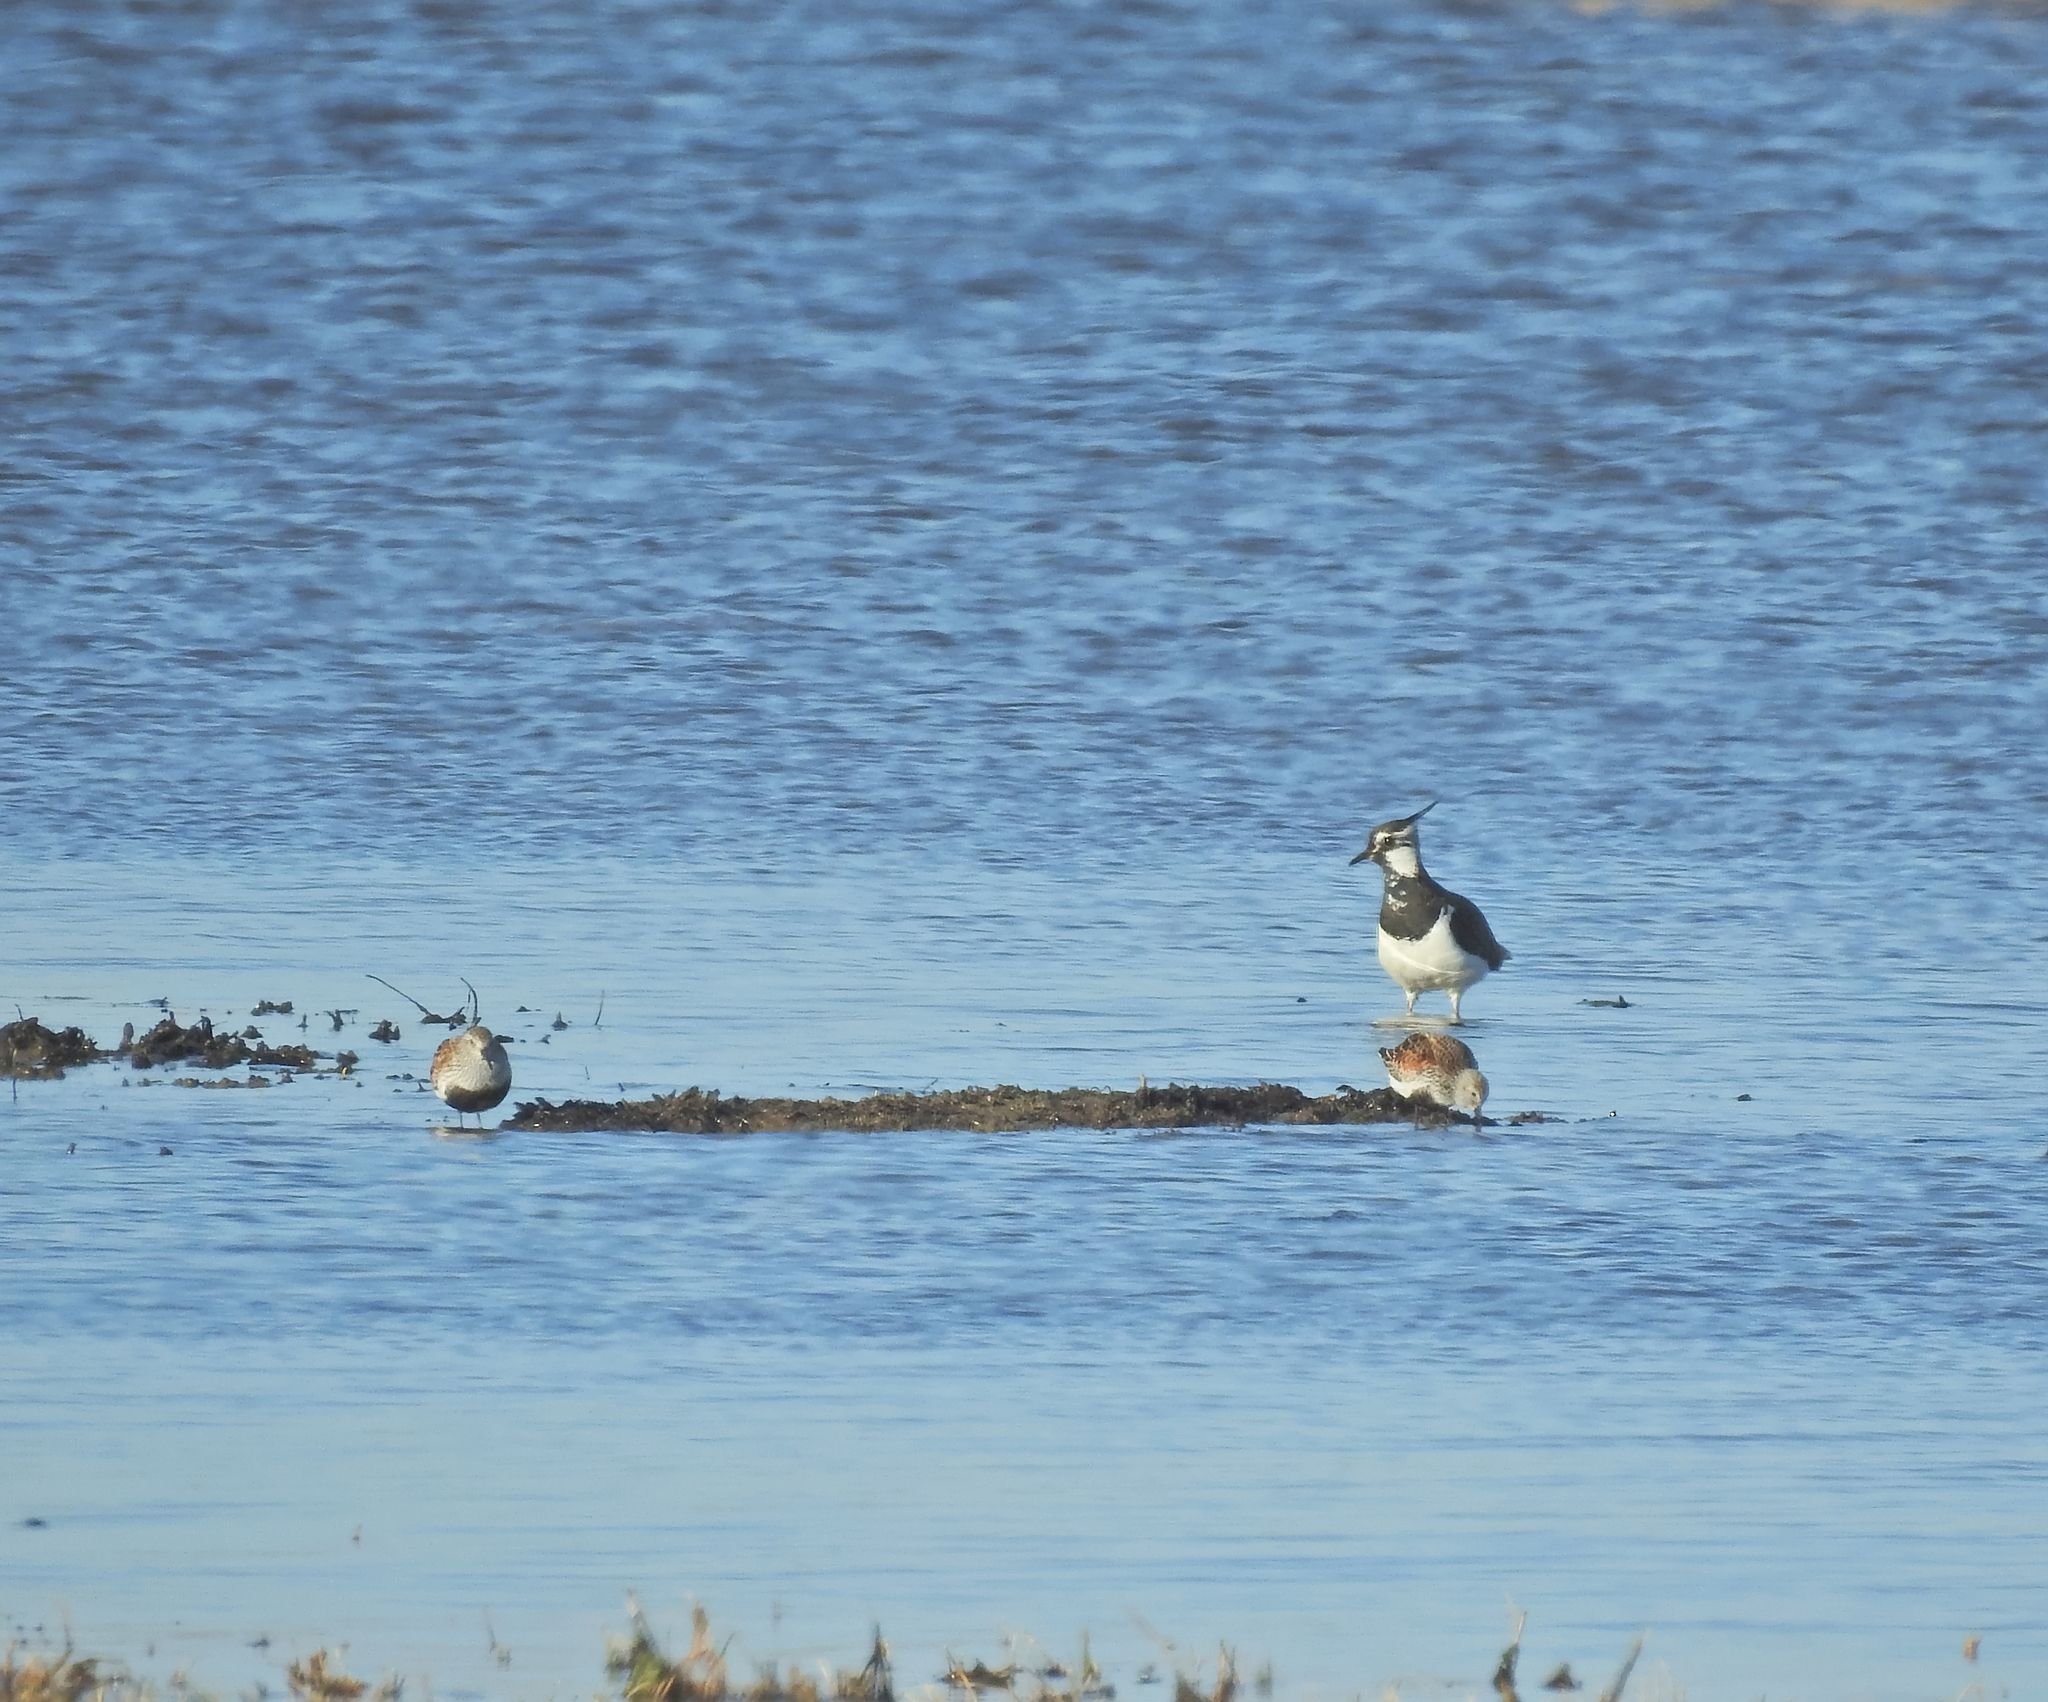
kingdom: Animalia
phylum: Chordata
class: Aves
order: Charadriiformes
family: Scolopacidae
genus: Calidris
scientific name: Calidris alpina
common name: Dunlin
